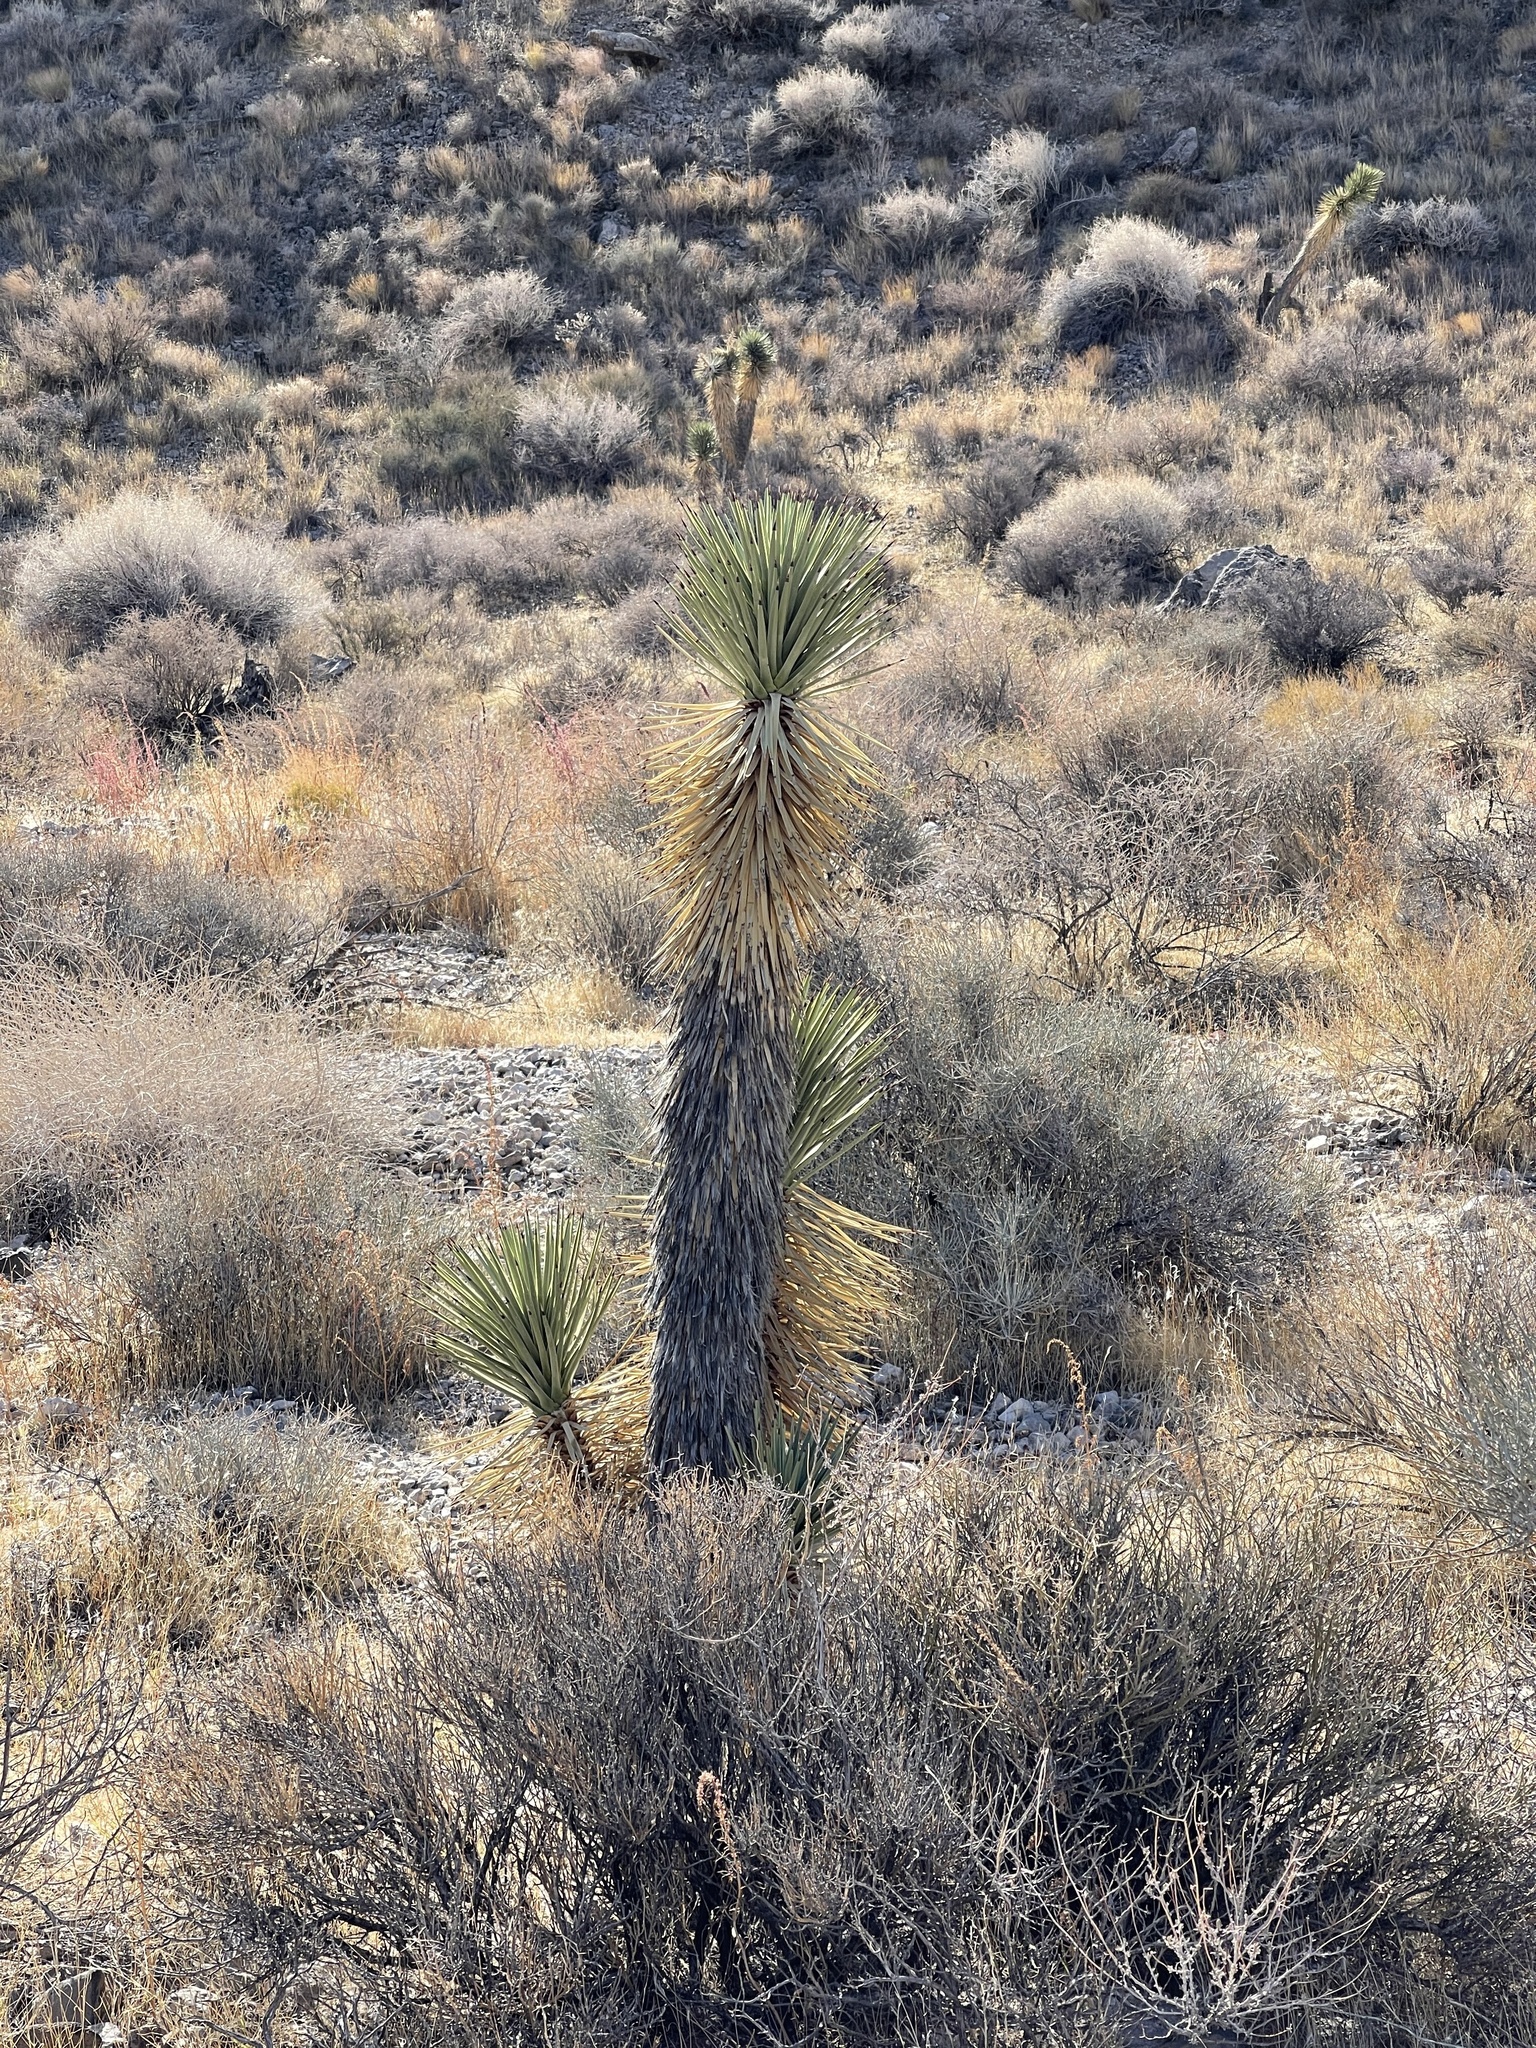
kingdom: Plantae
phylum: Tracheophyta
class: Liliopsida
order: Asparagales
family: Asparagaceae
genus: Yucca
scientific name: Yucca brevifolia
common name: Joshua tree
